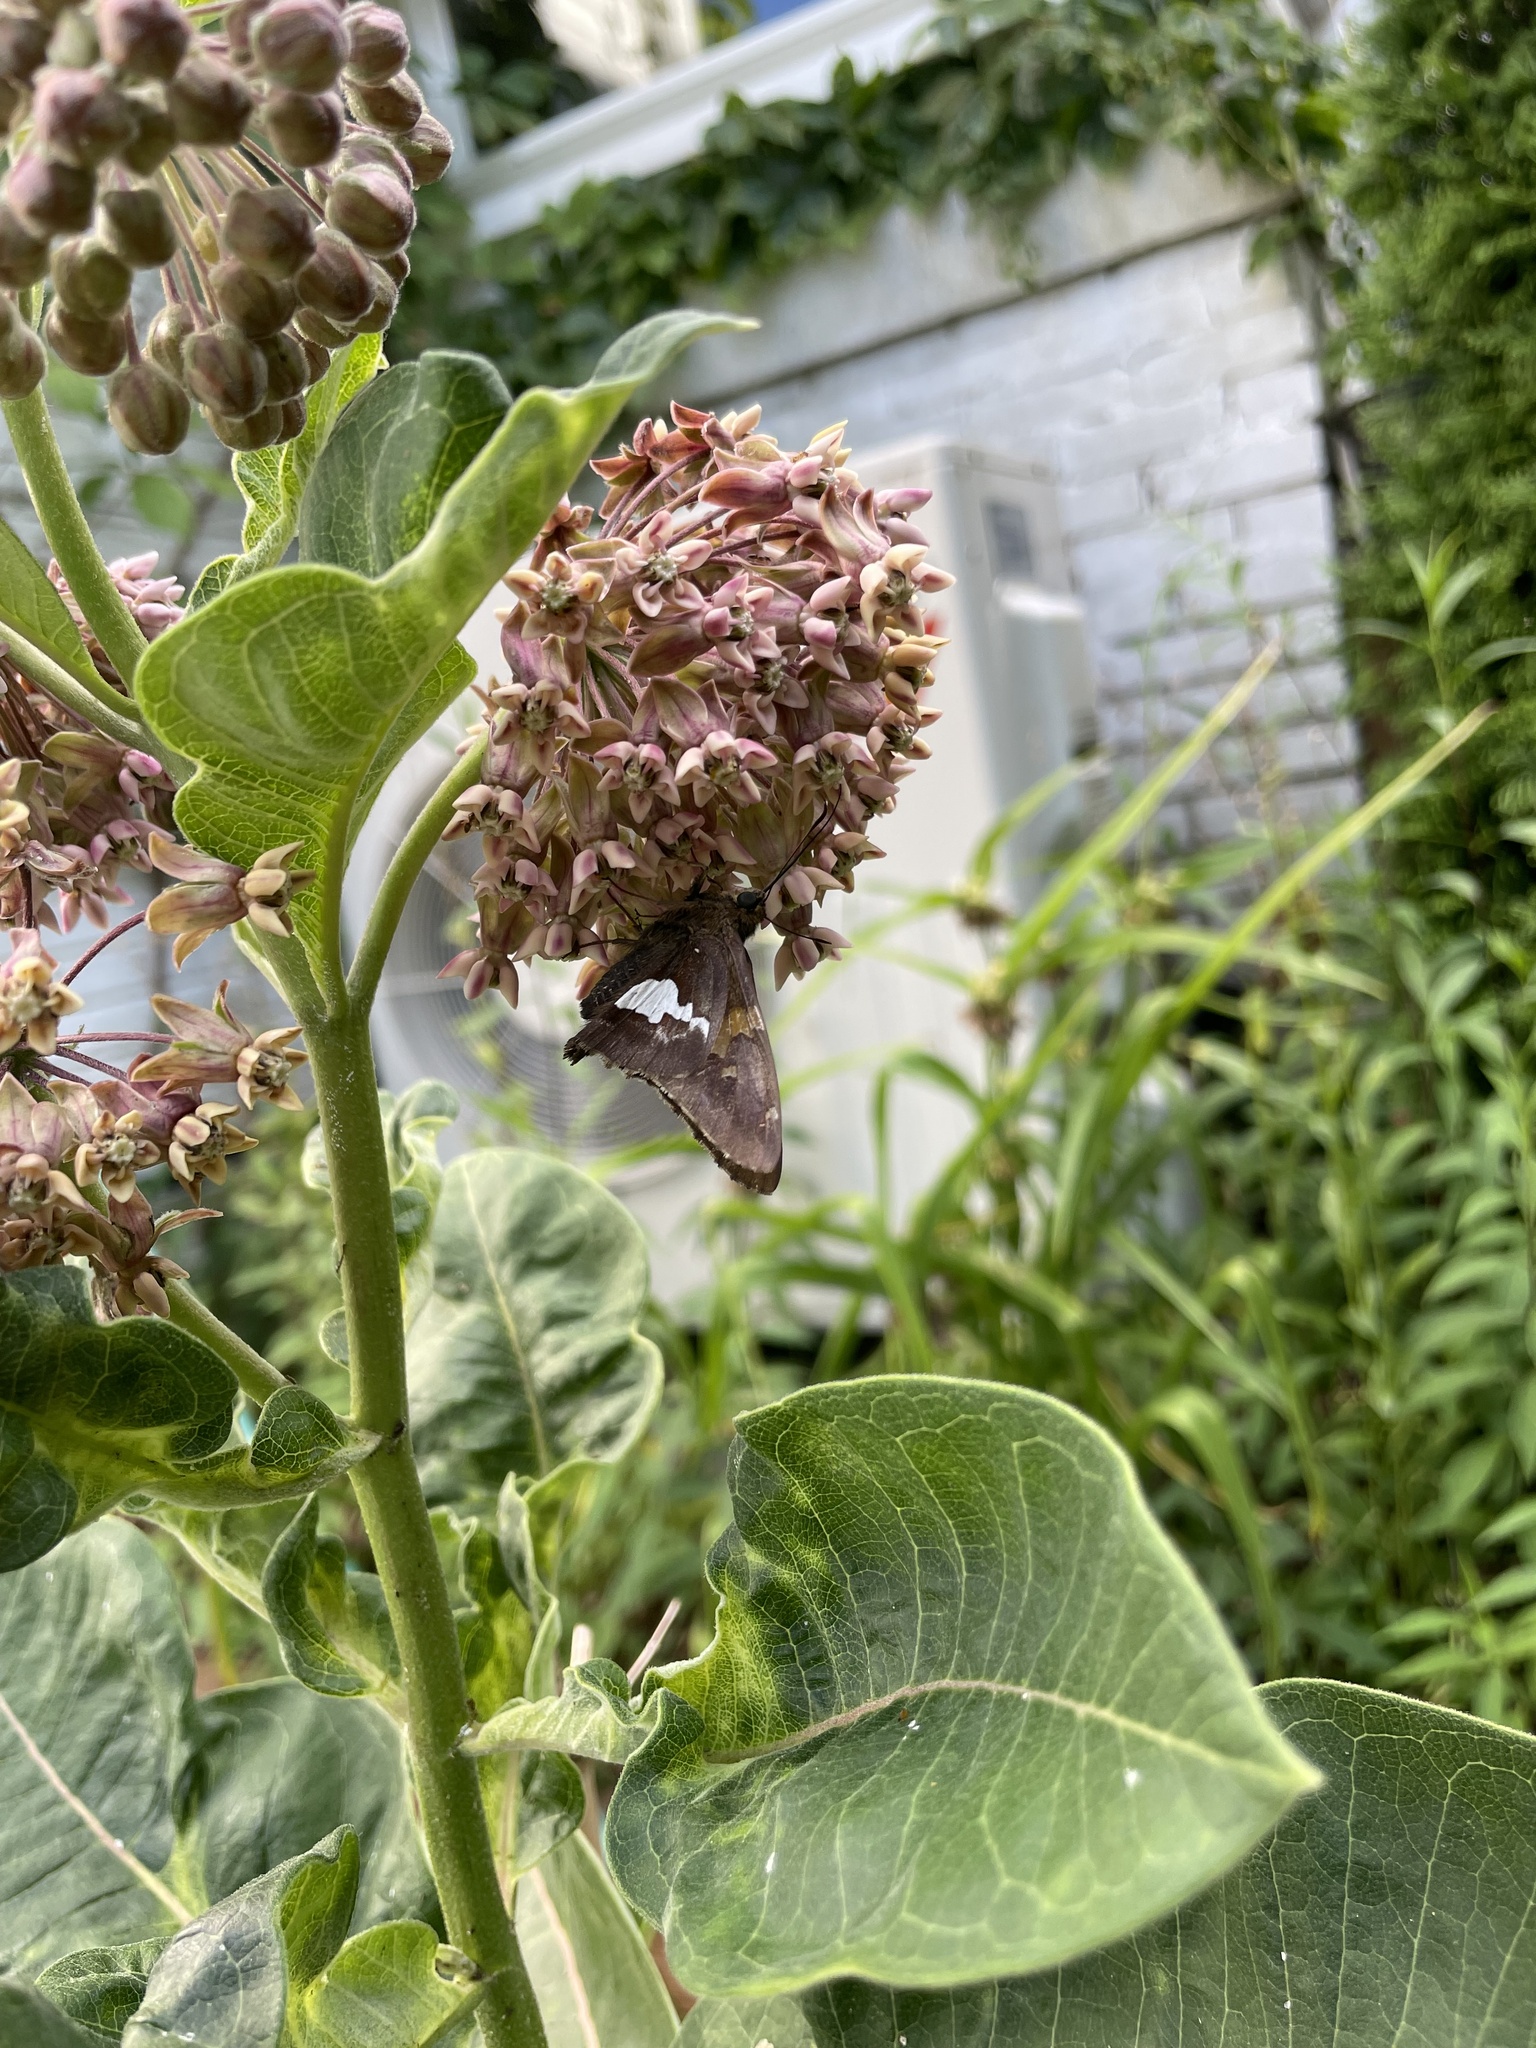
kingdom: Animalia
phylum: Arthropoda
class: Insecta
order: Lepidoptera
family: Hesperiidae
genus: Epargyreus
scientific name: Epargyreus clarus
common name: Silver-spotted skipper
